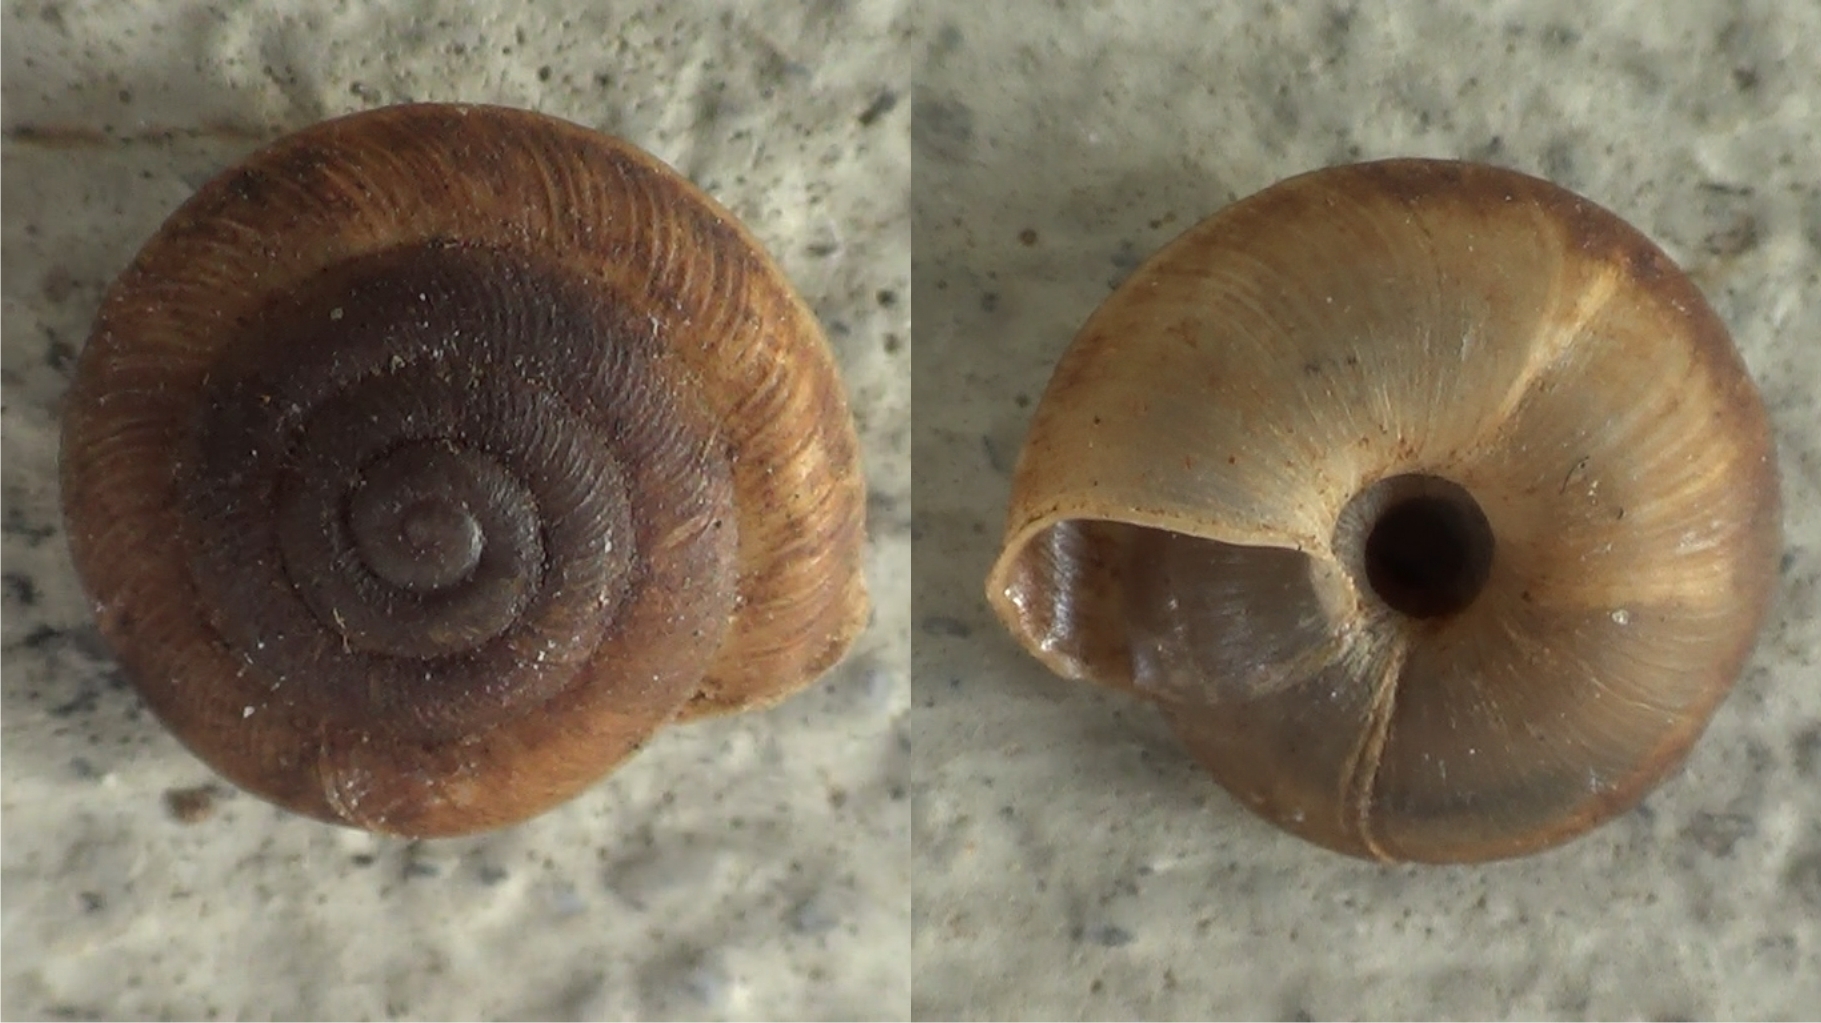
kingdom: Animalia
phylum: Mollusca
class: Gastropoda
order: Stylommatophora
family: Trissexodontidae
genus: Caracollina
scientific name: Caracollina lenticula
